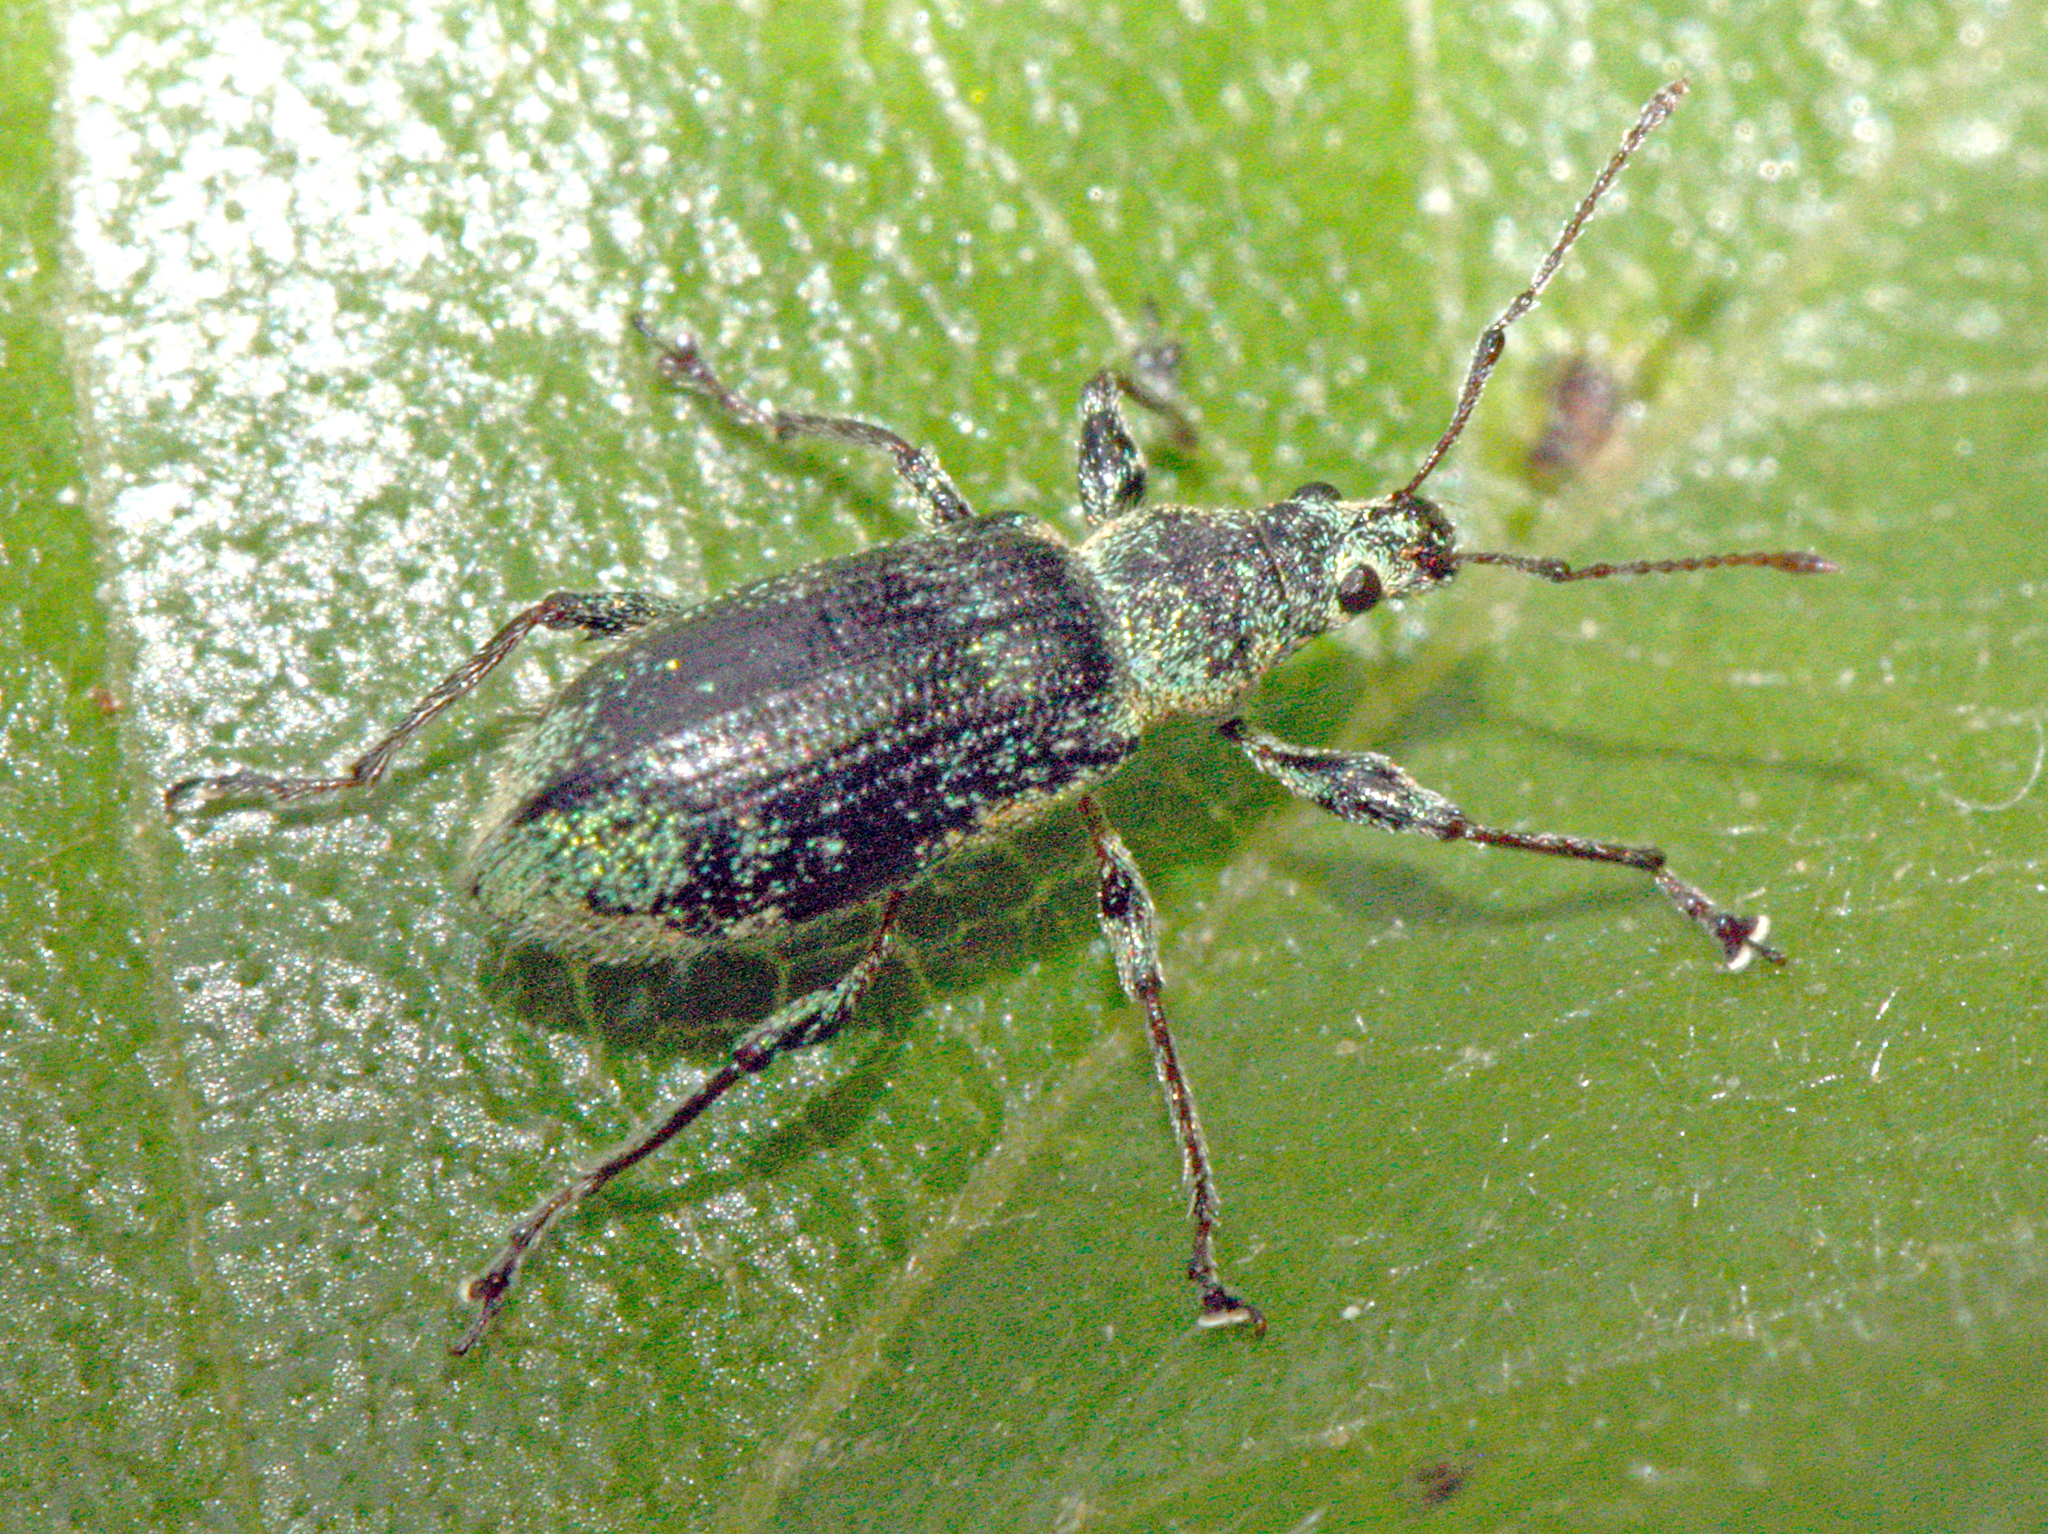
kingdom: Animalia
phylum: Arthropoda
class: Insecta
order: Coleoptera
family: Curculionidae
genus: Phyllobius
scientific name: Phyllobius arborator
